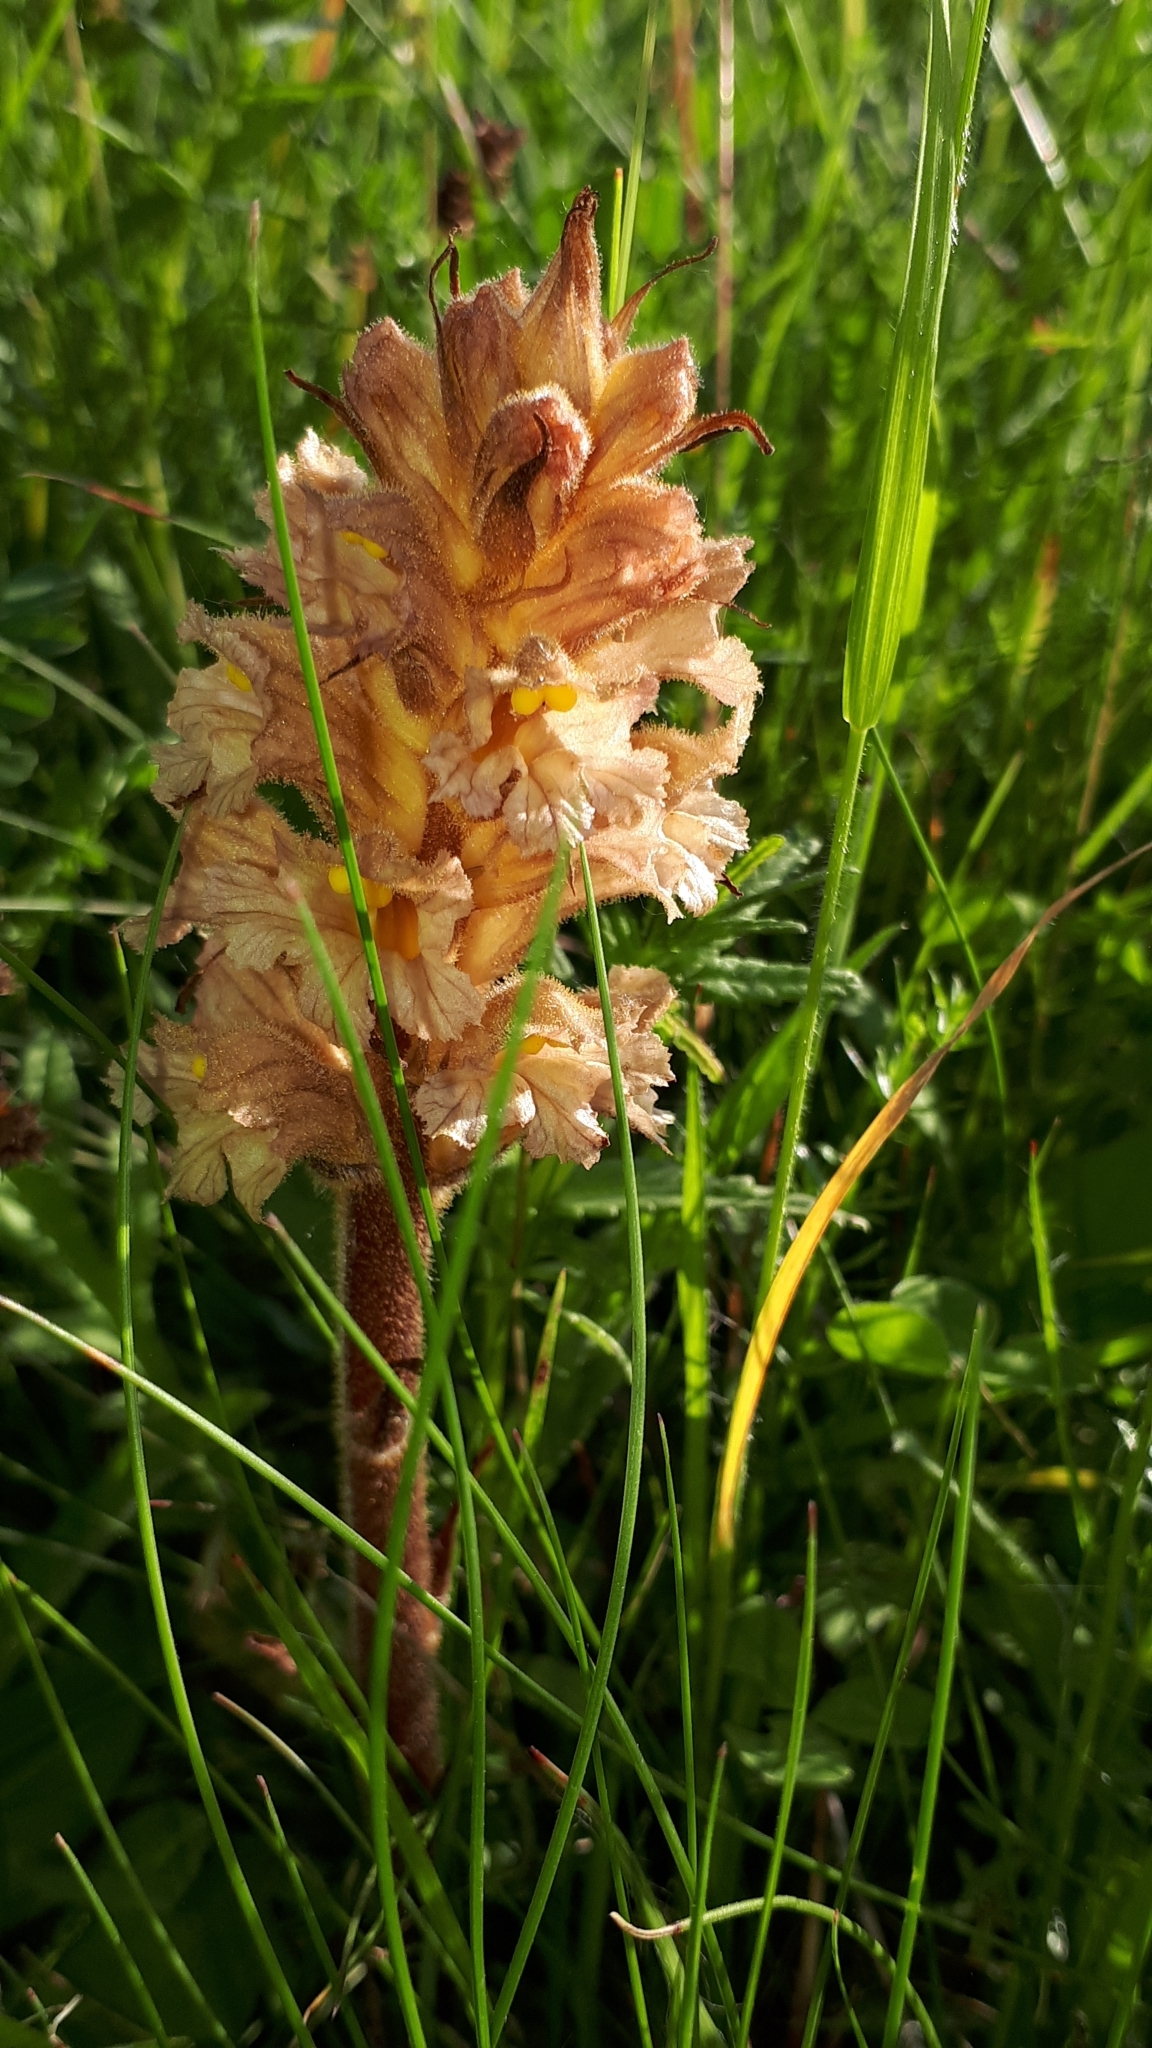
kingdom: Plantae
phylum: Tracheophyta
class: Magnoliopsida
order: Lamiales
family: Orobanchaceae
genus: Orobanche
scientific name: Orobanche lutea
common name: Yellow broomrape
